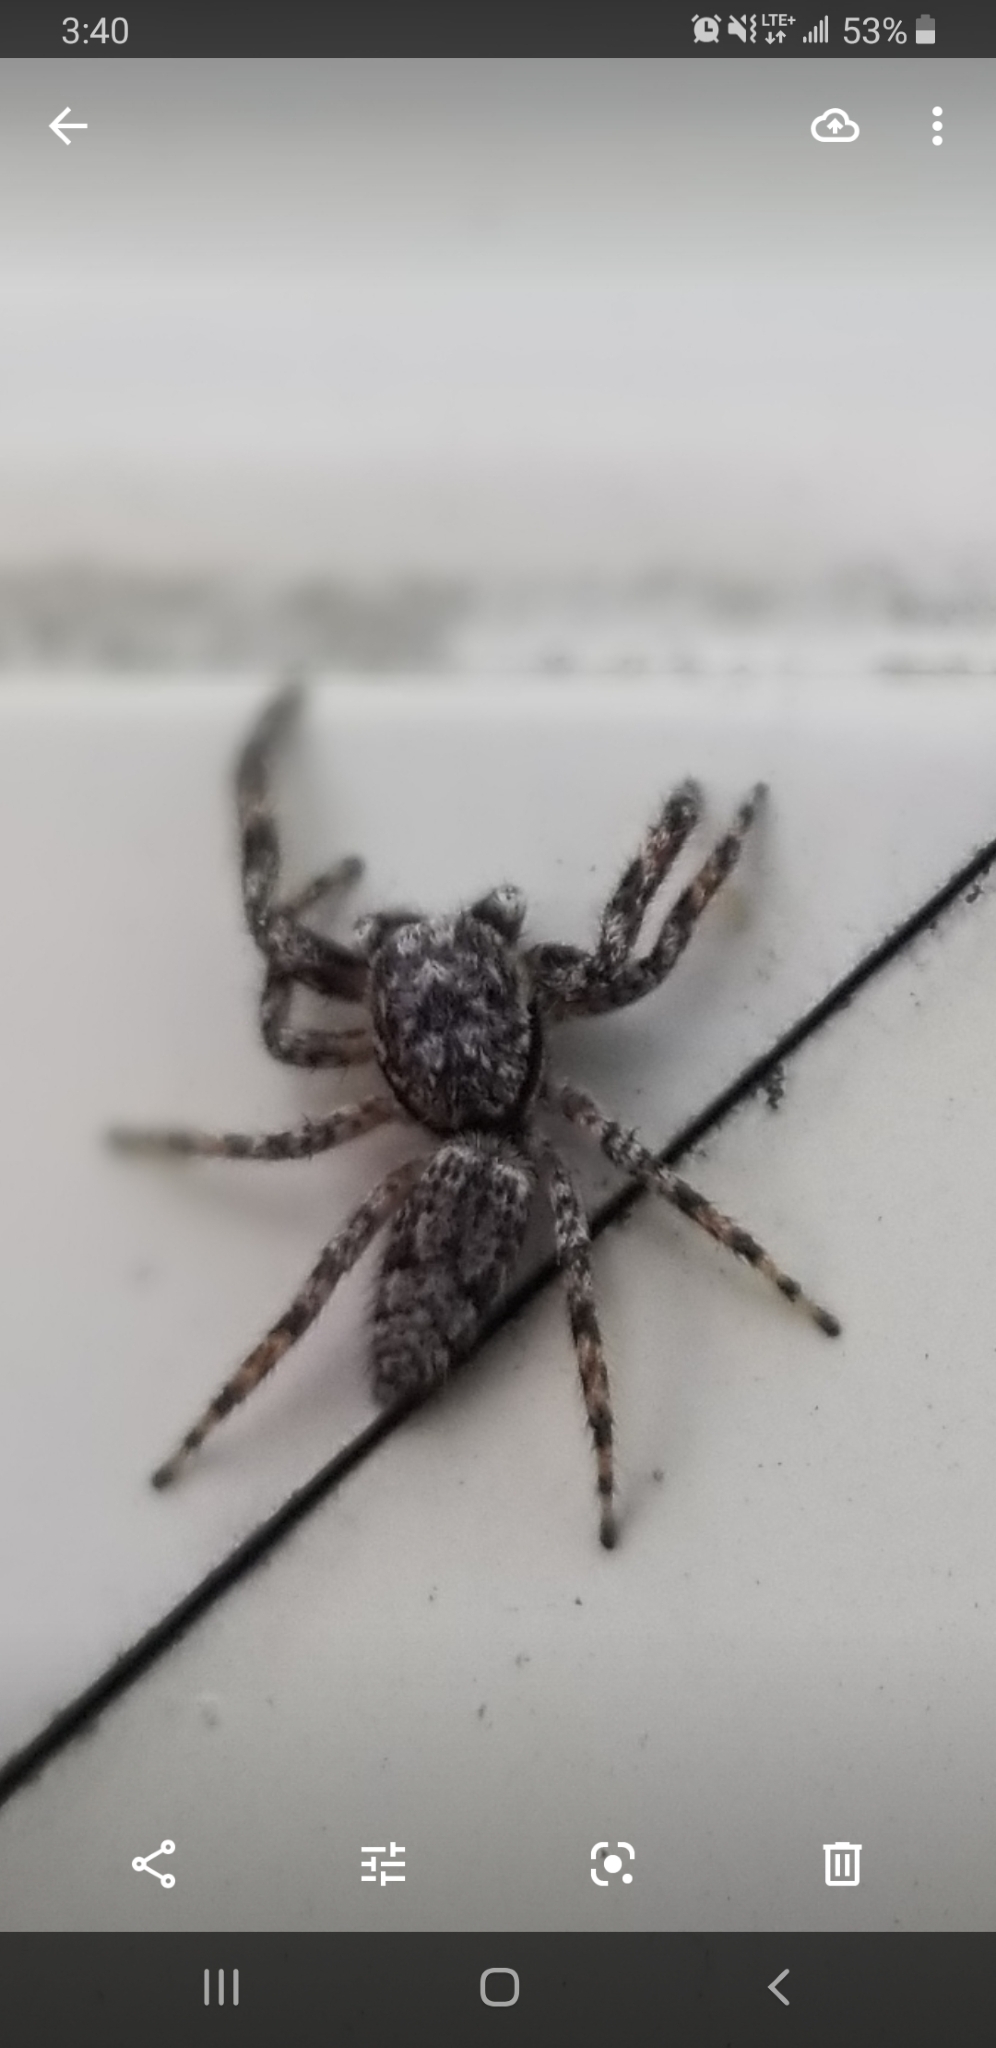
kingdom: Animalia
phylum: Arthropoda
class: Arachnida
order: Araneae
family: Salticidae
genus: Platycryptus
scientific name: Platycryptus undatus
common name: Tan jumping spider
